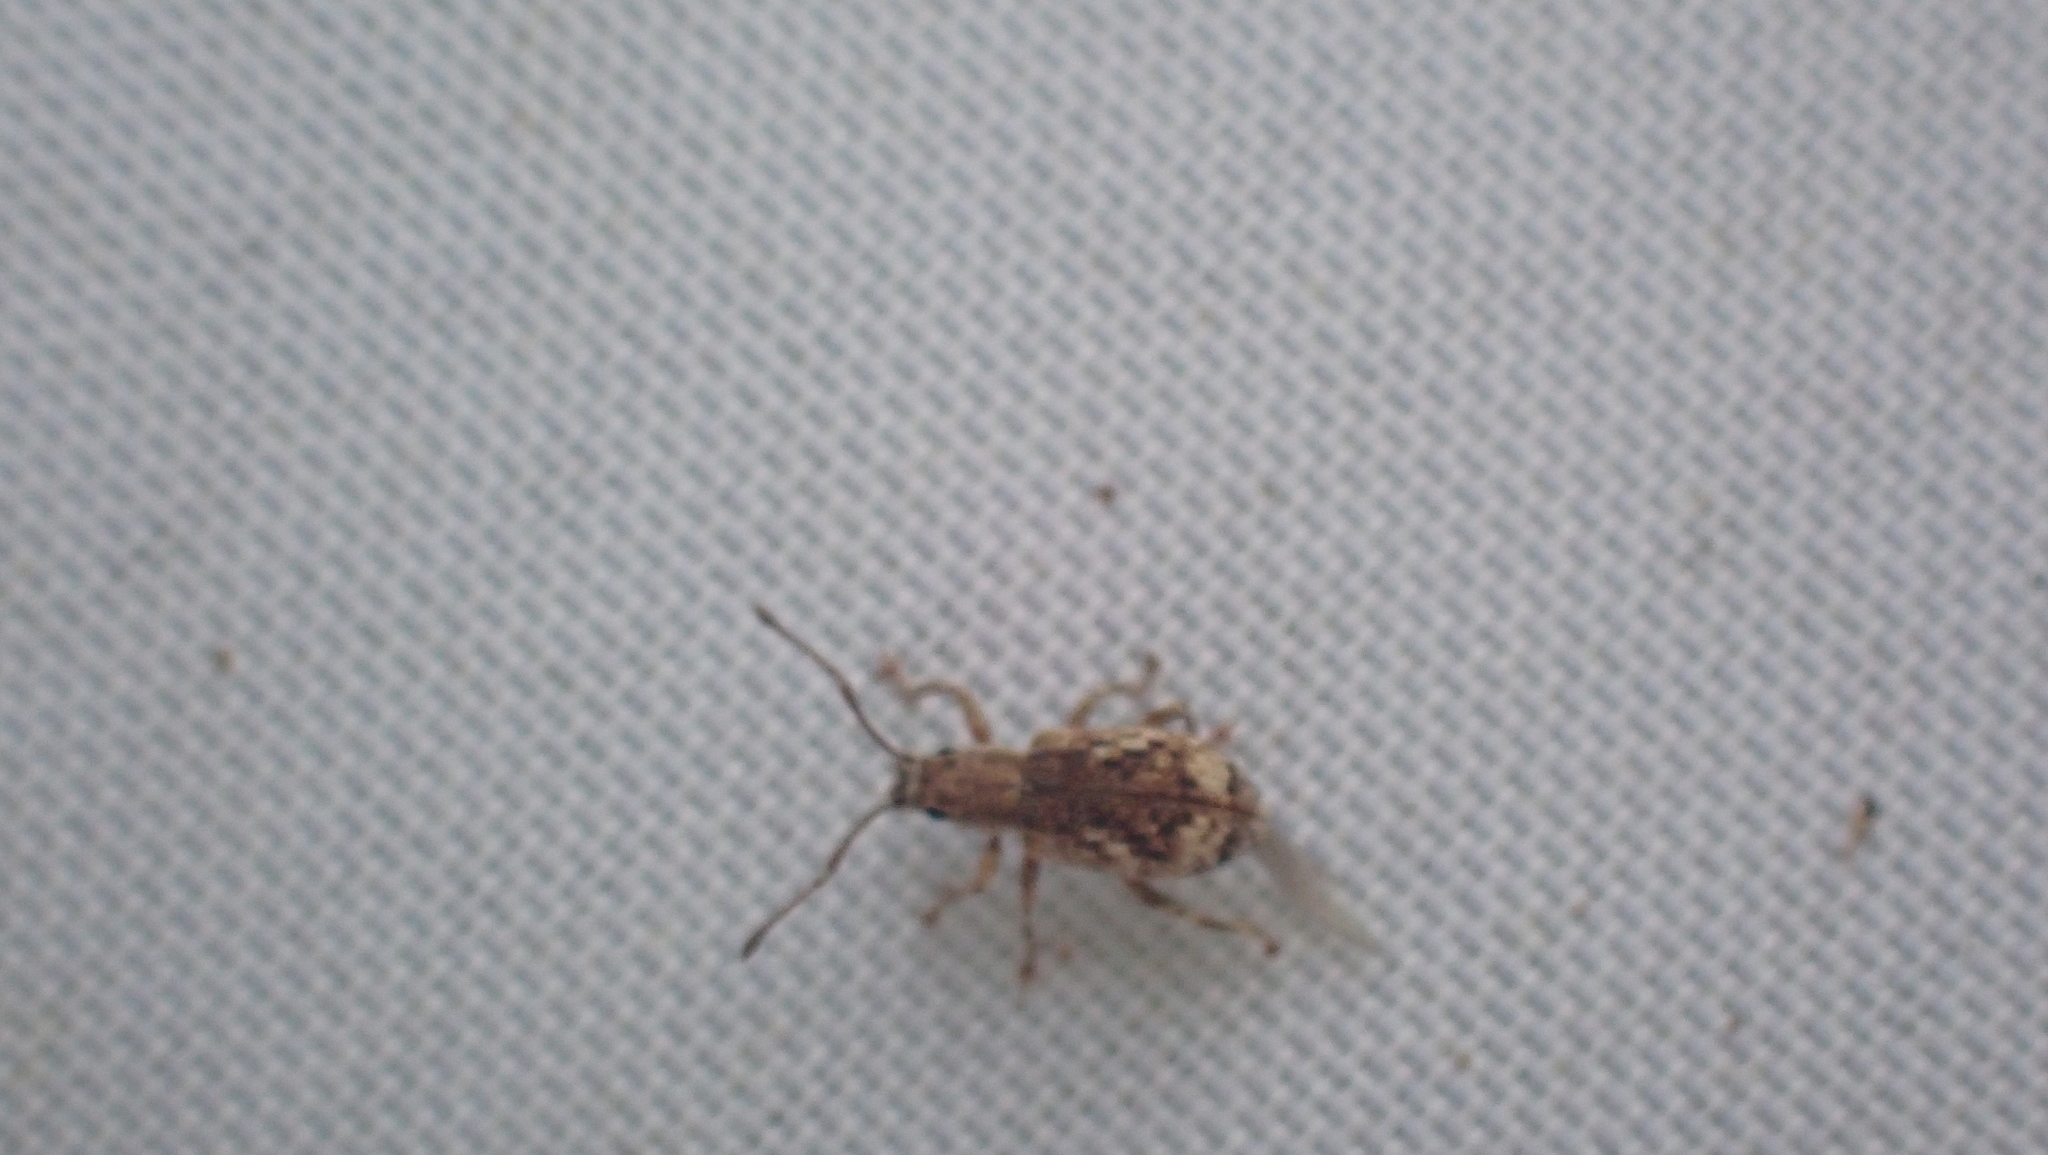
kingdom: Animalia
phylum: Arthropoda
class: Insecta
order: Coleoptera
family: Curculionidae
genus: Pseudoedophrys
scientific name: Pseudoedophrys hilleri
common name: Weevil
